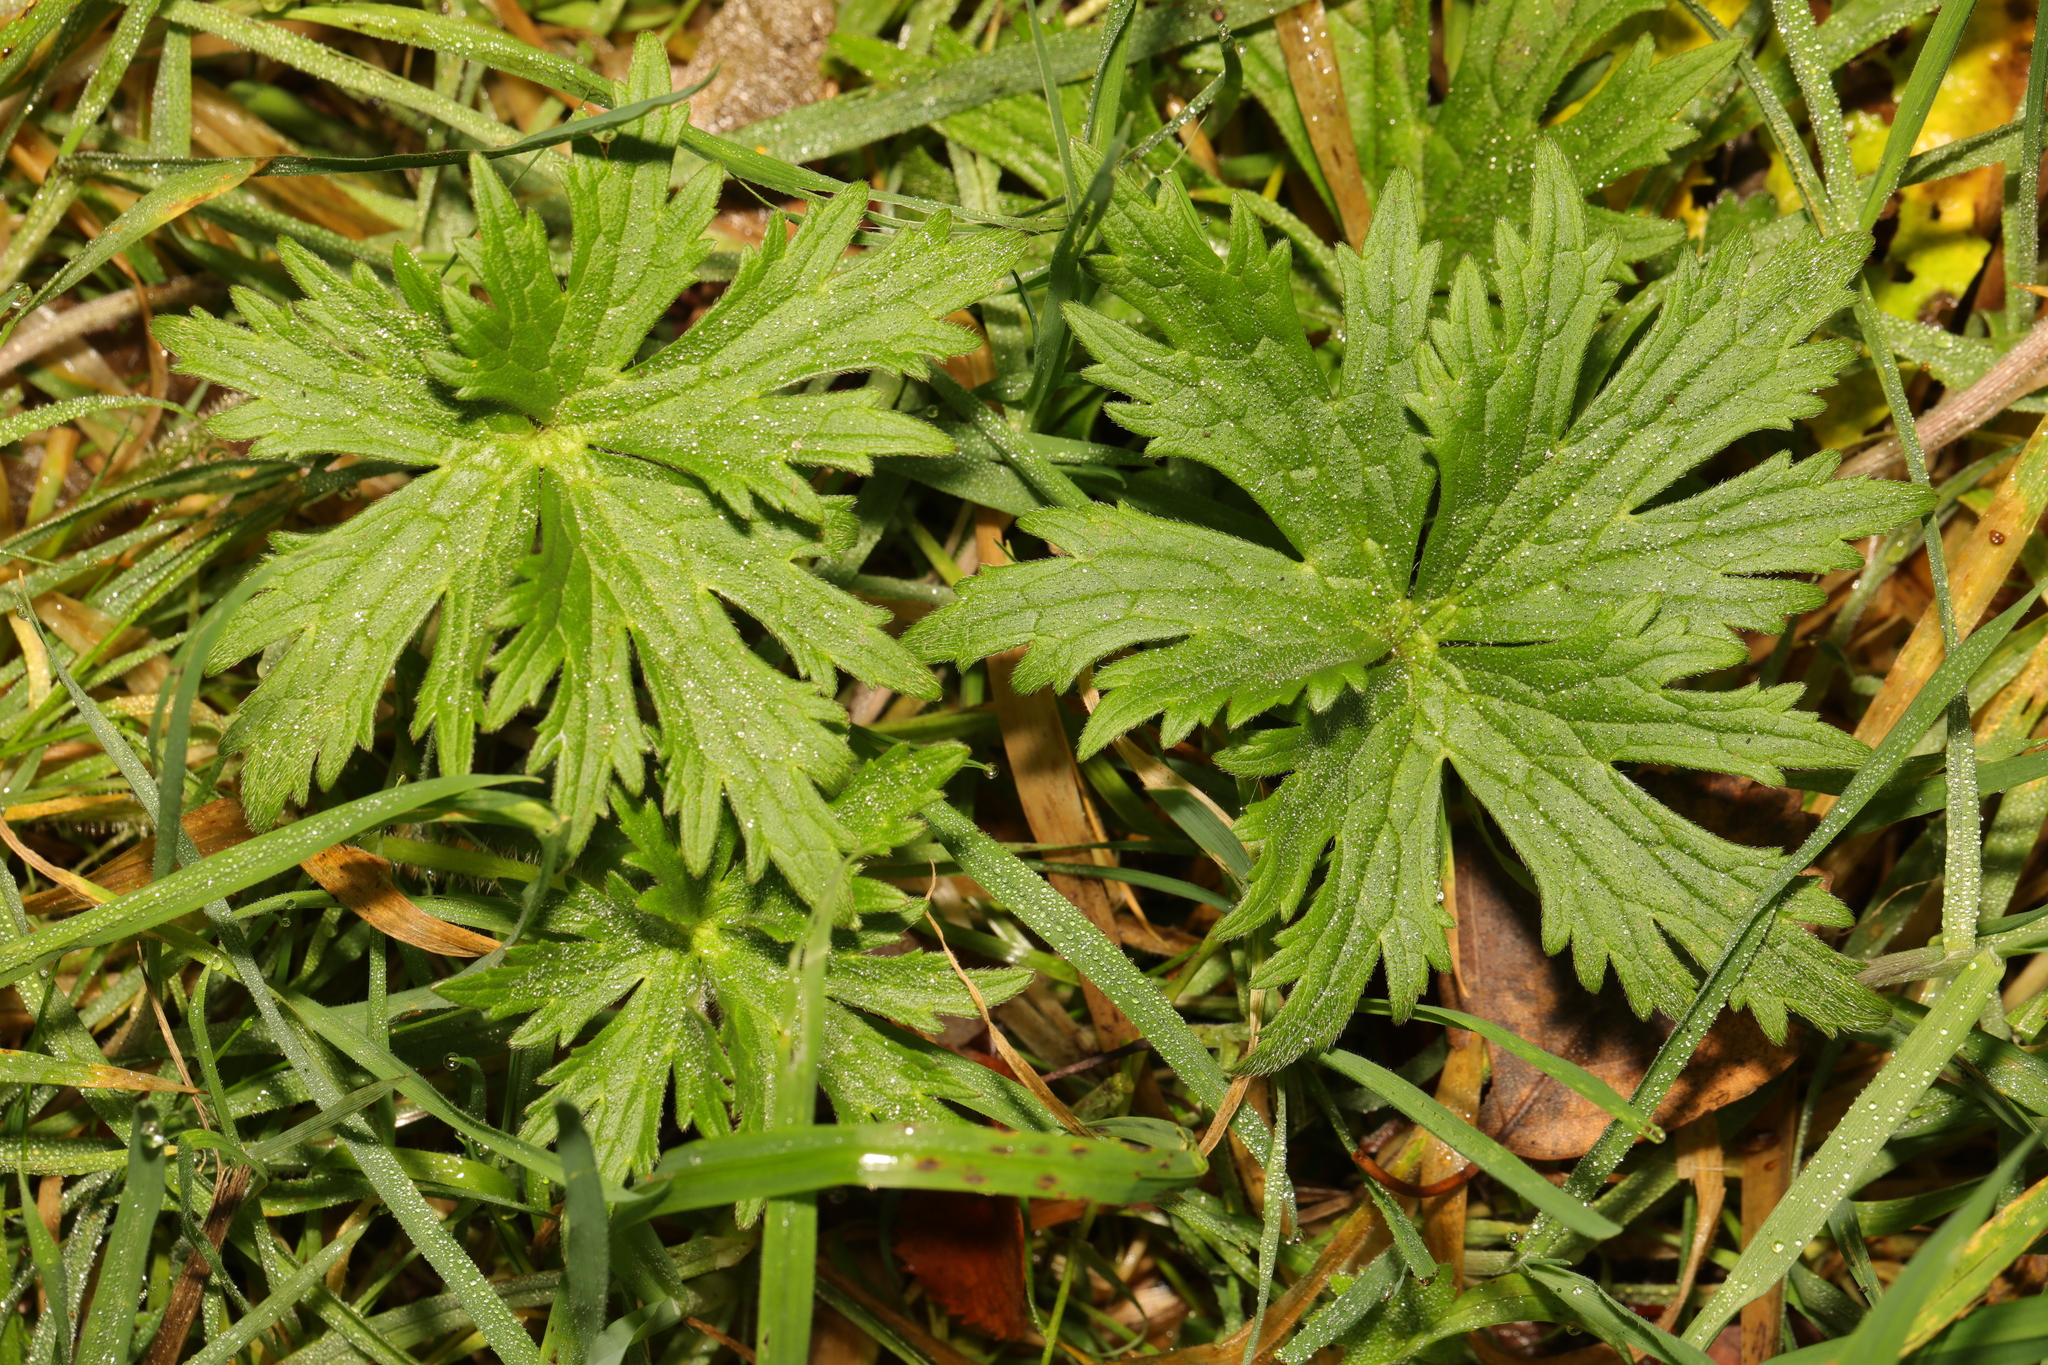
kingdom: Plantae
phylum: Tracheophyta
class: Magnoliopsida
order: Ranunculales
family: Ranunculaceae
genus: Ranunculus
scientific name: Ranunculus acris
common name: Meadow buttercup
